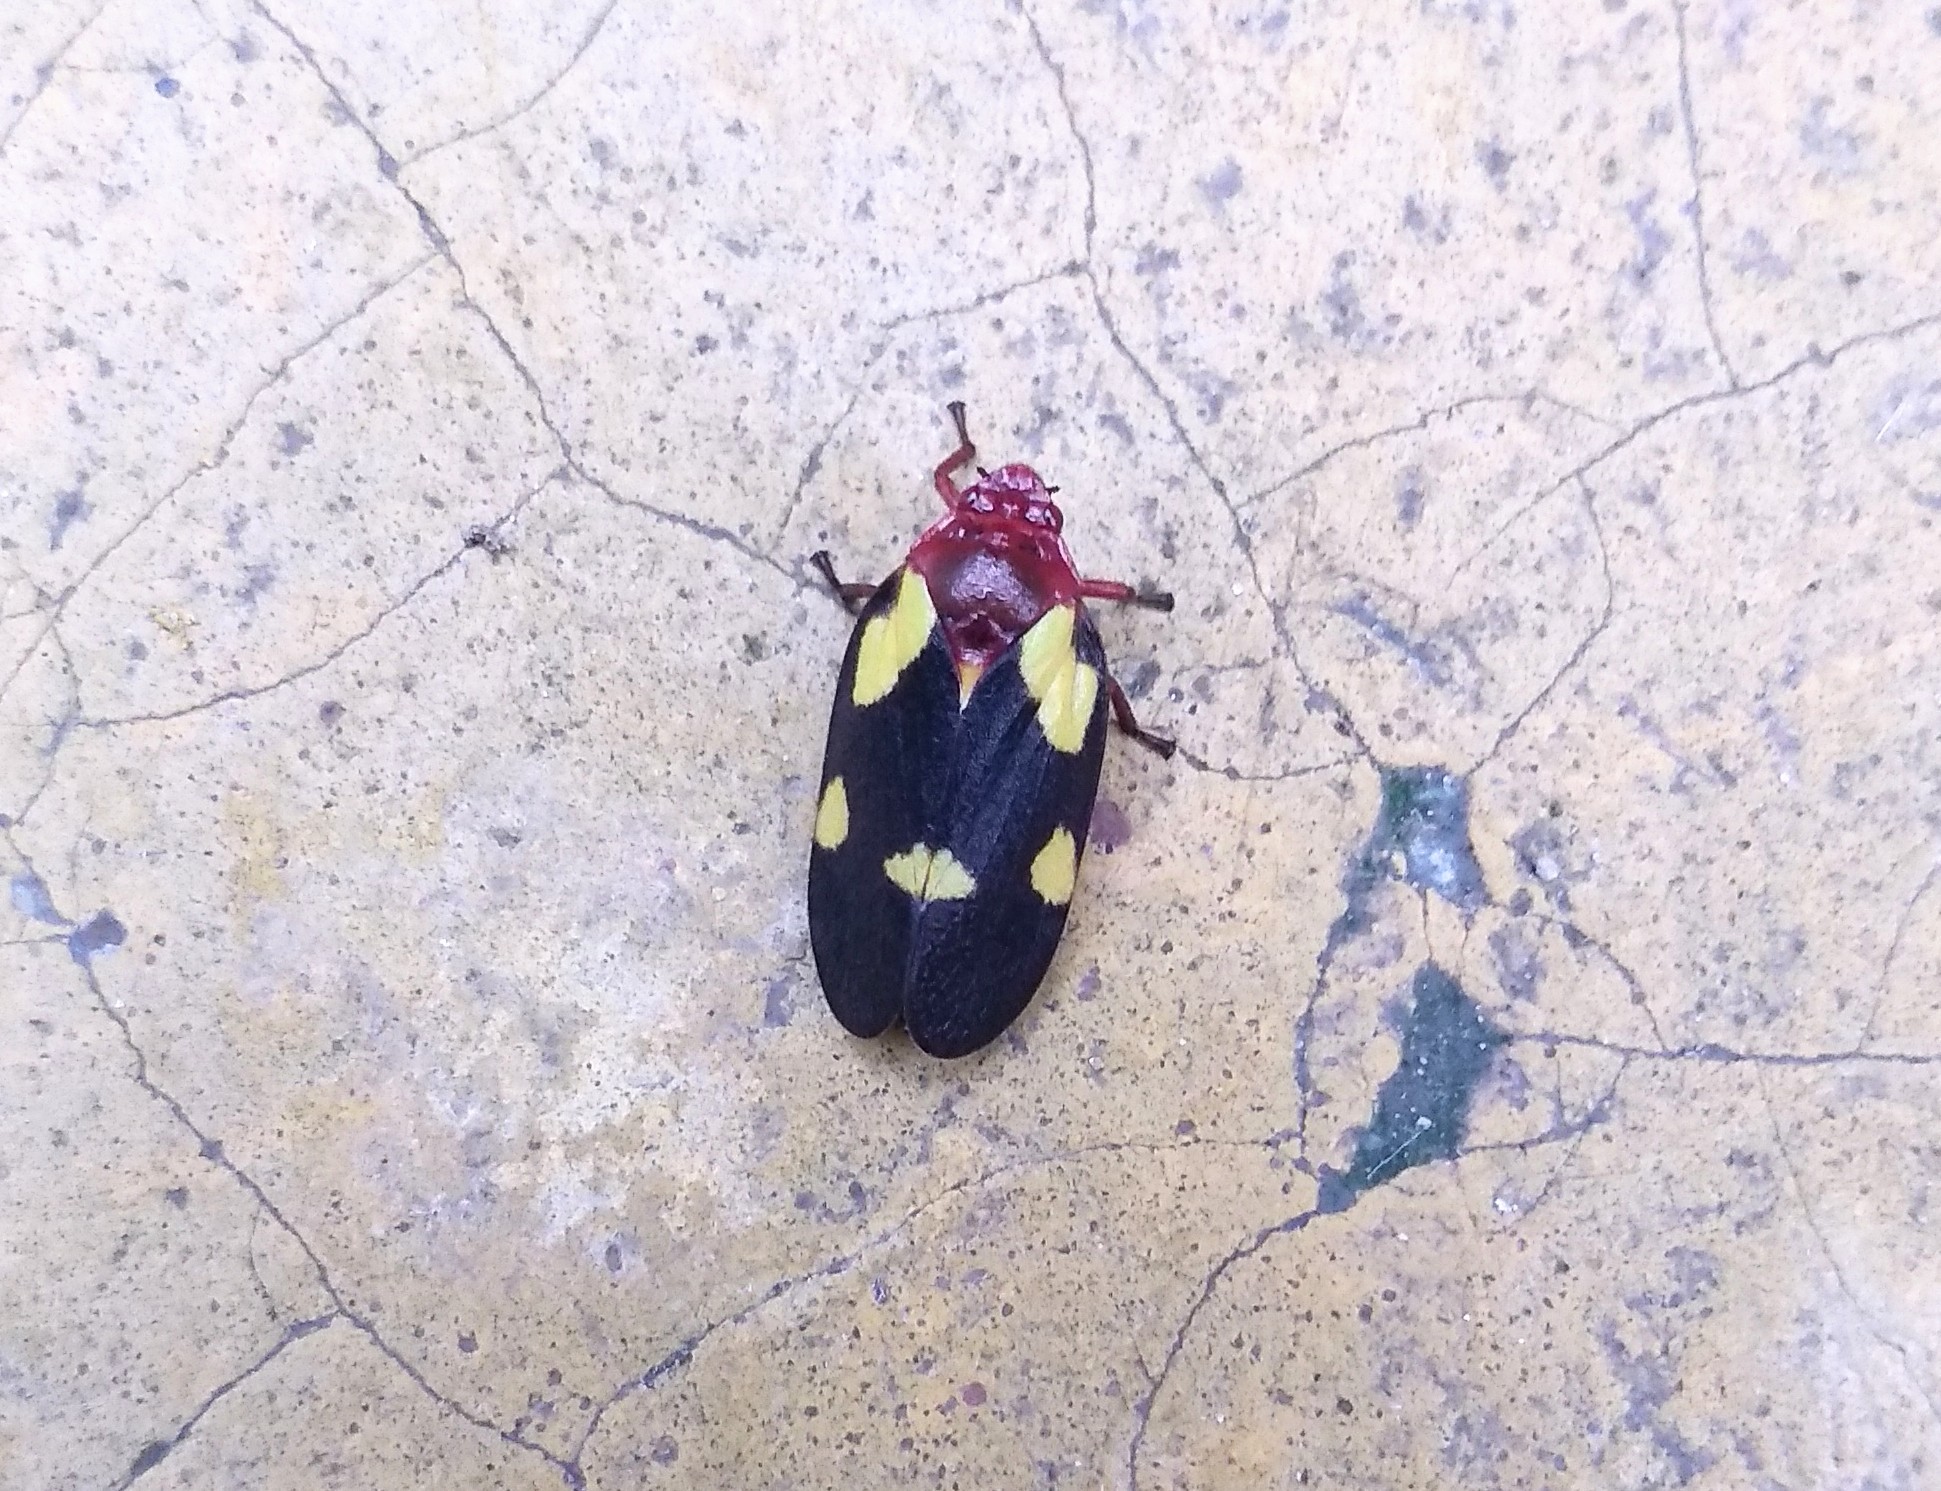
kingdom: Animalia
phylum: Arthropoda
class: Insecta
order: Hemiptera
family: Cercopidae
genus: Sphenorhina
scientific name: Sphenorhina limbata
